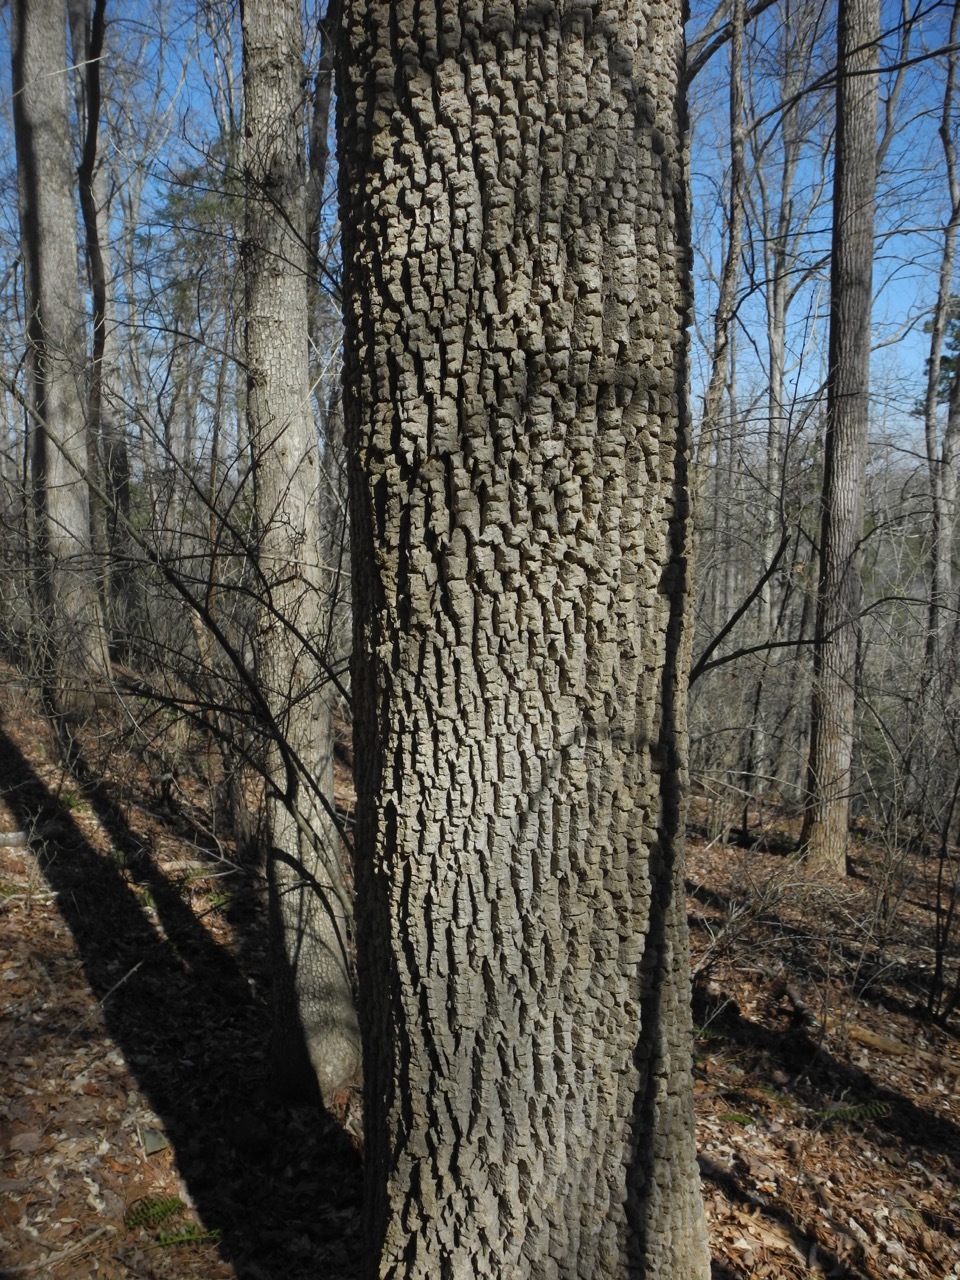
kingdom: Plantae
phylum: Tracheophyta
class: Magnoliopsida
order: Cornales
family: Nyssaceae
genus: Nyssa
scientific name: Nyssa sylvatica
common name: Black tupelo
